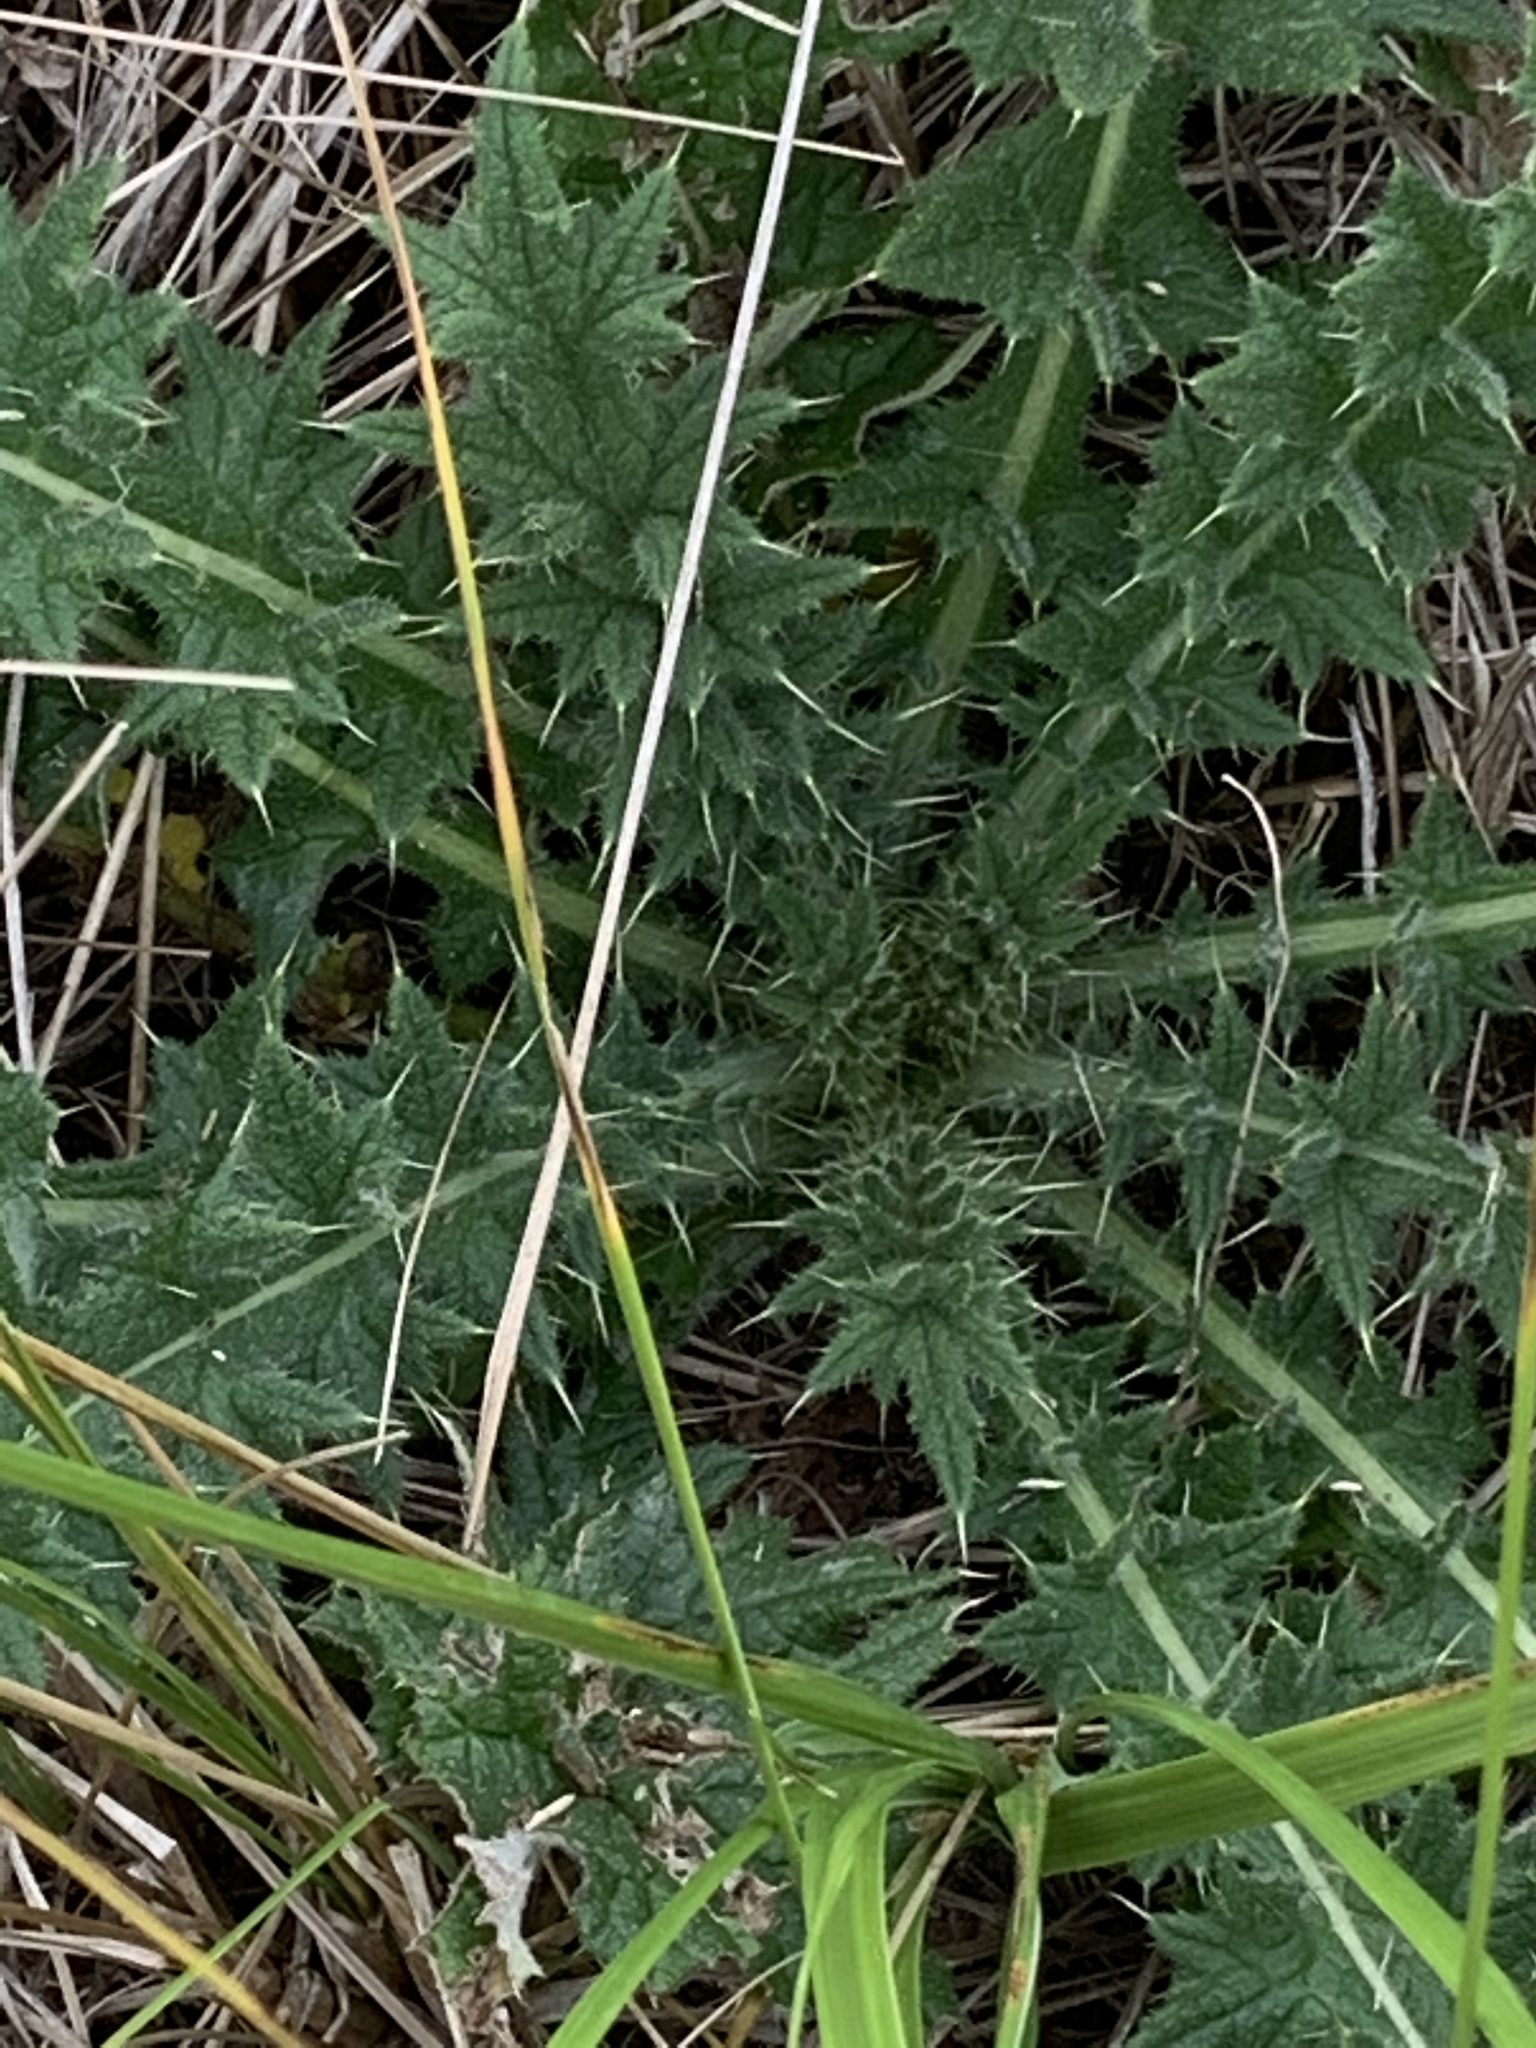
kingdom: Plantae
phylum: Tracheophyta
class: Magnoliopsida
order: Asterales
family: Asteraceae
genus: Cirsium
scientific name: Cirsium vulgare
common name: Bull thistle
